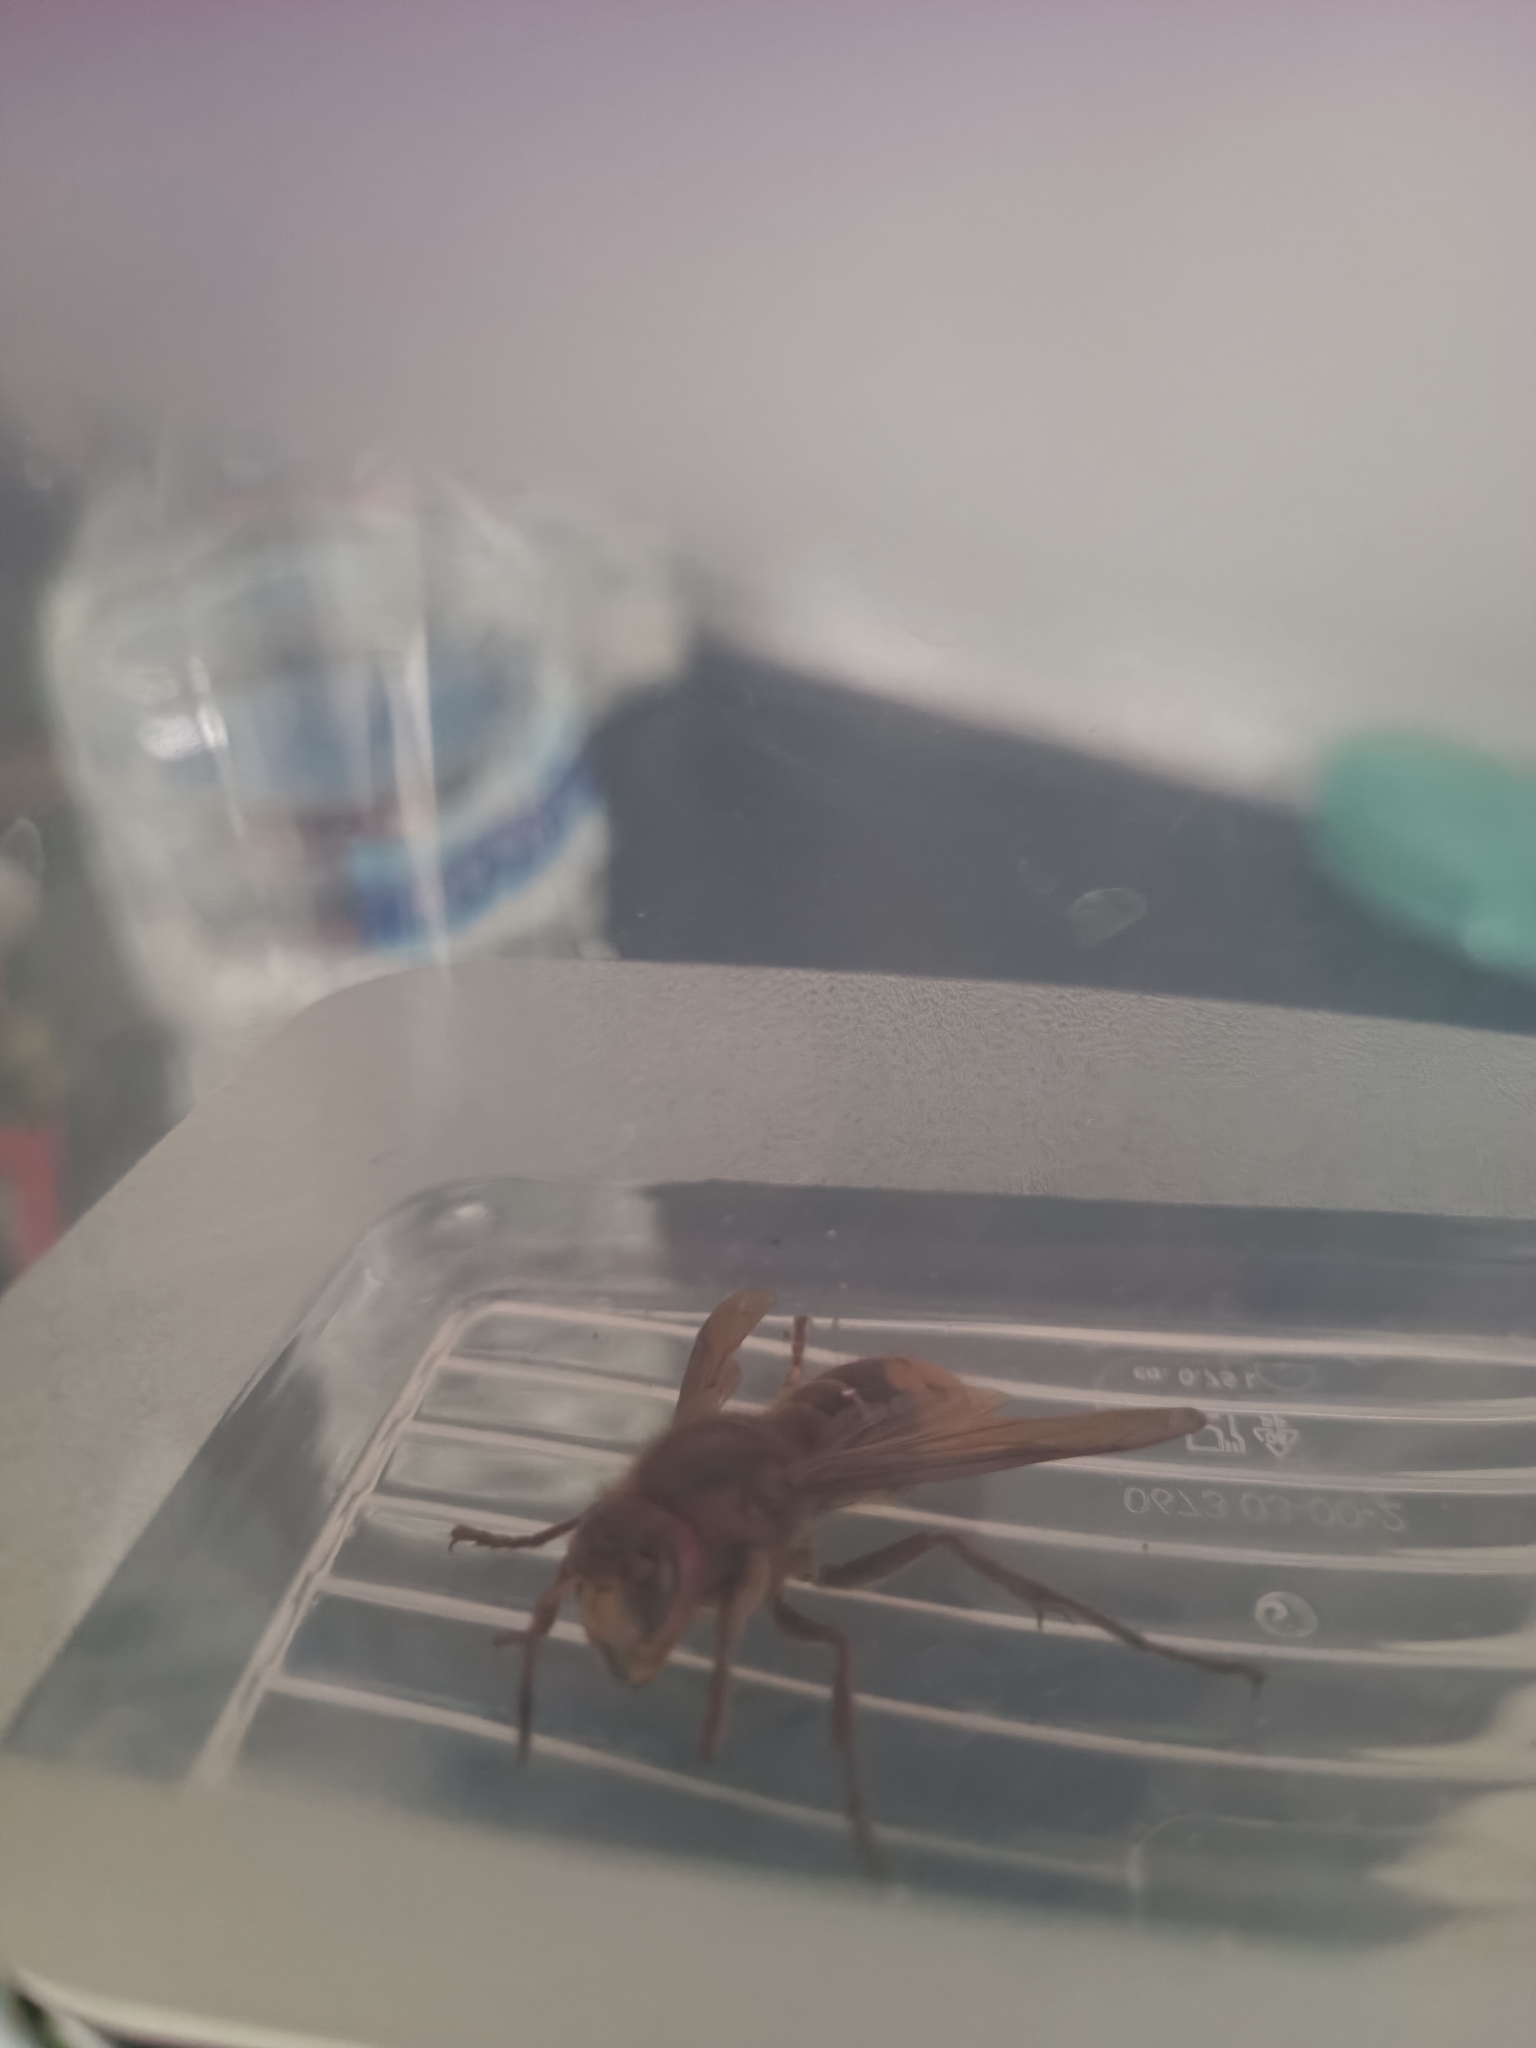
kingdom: Animalia
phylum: Arthropoda
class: Insecta
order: Hymenoptera
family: Vespidae
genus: Vespa
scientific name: Vespa crabro
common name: Hornet
